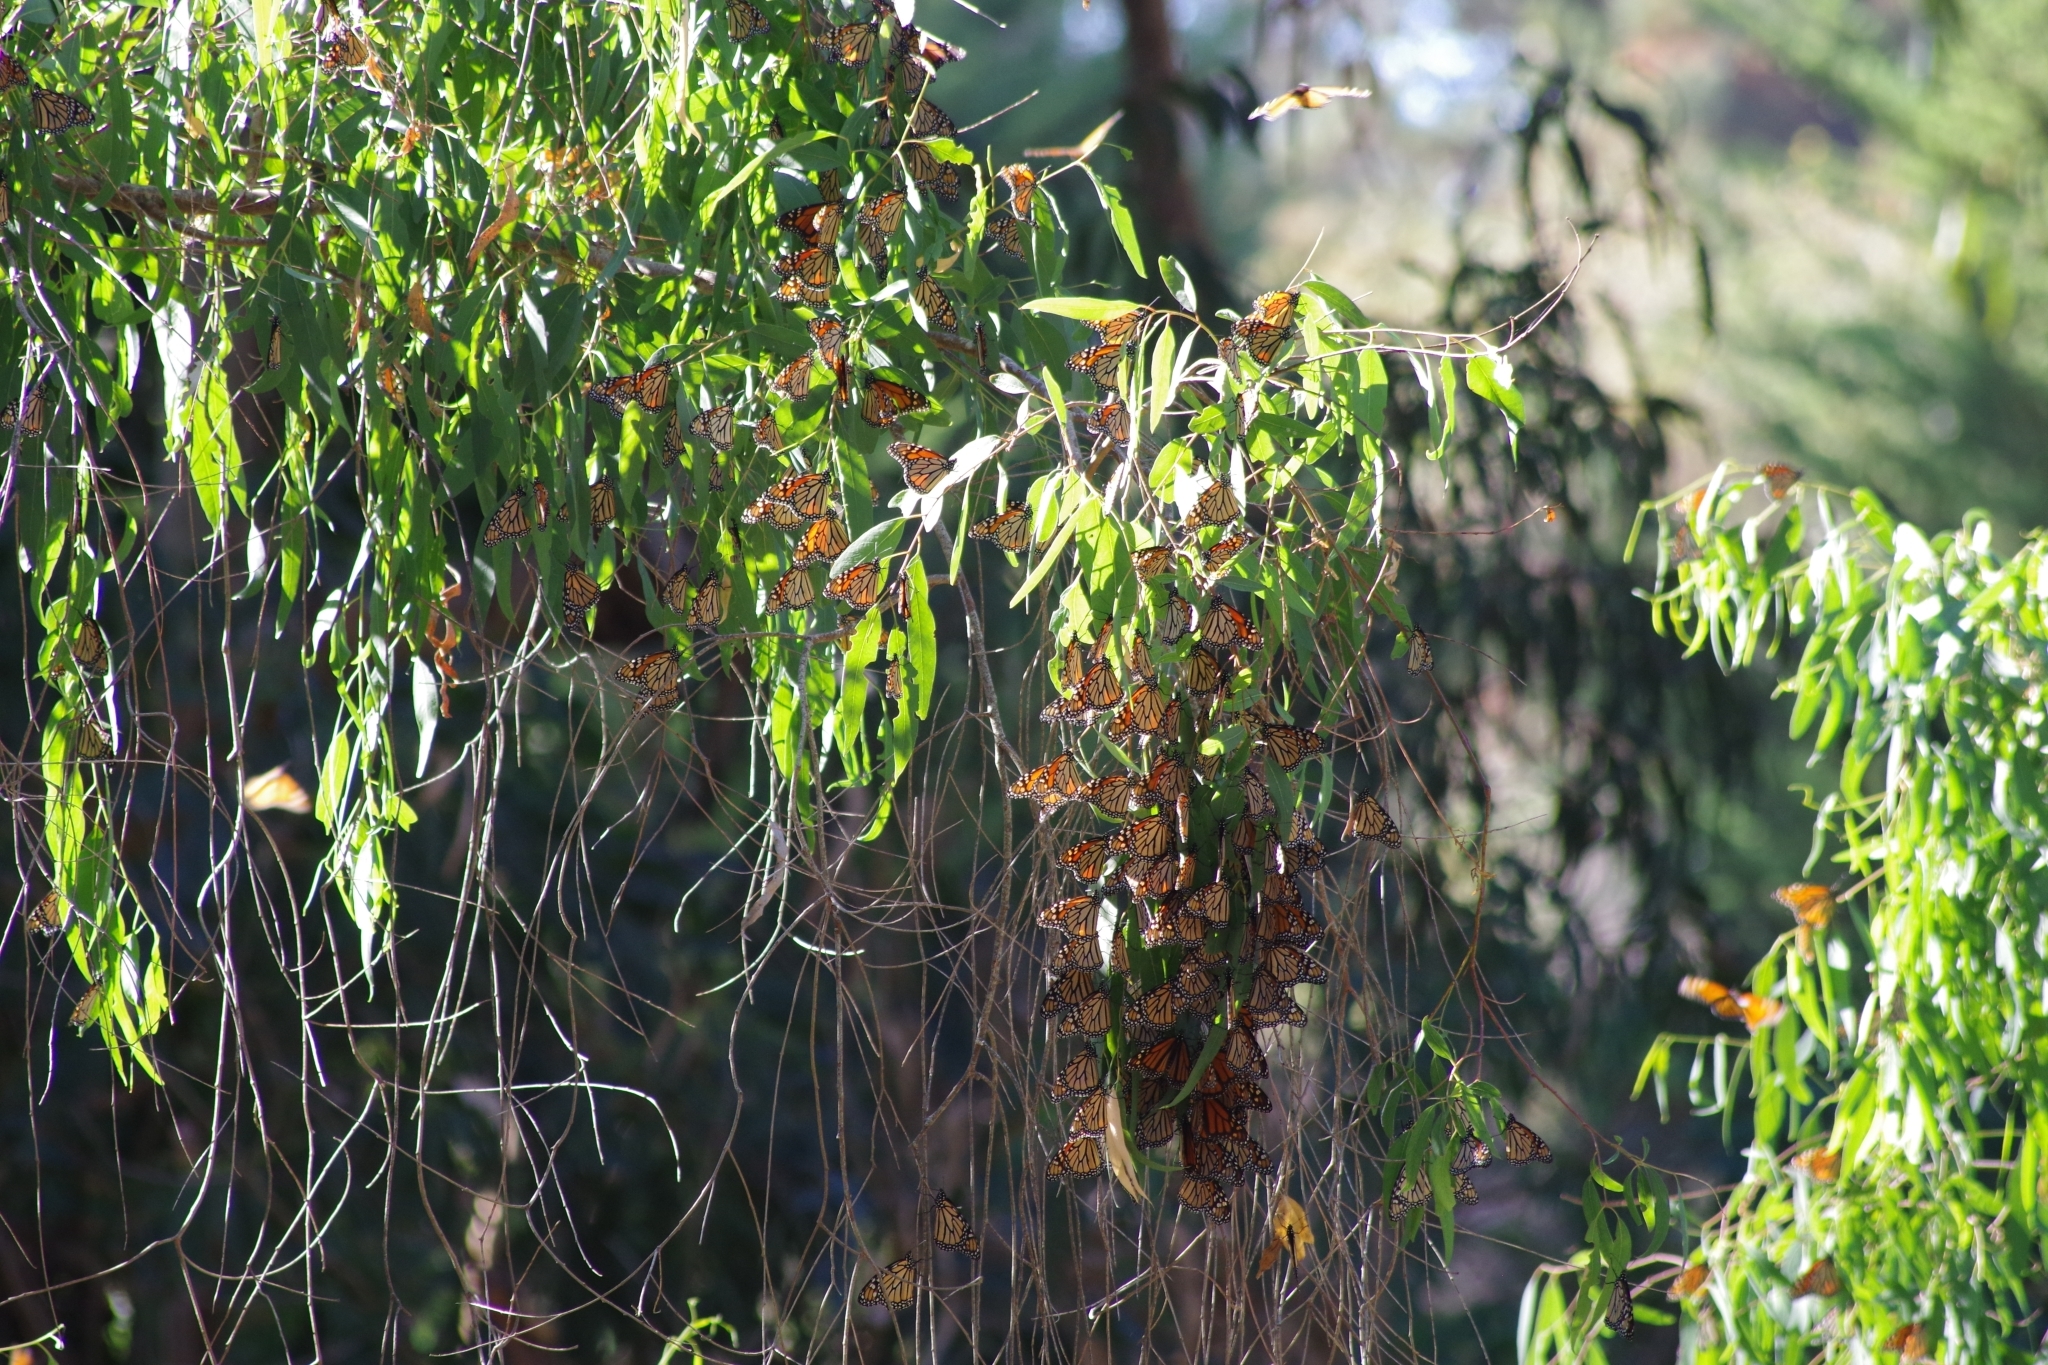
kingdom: Animalia
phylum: Arthropoda
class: Insecta
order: Lepidoptera
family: Nymphalidae
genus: Danaus
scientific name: Danaus plexippus
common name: Monarch
